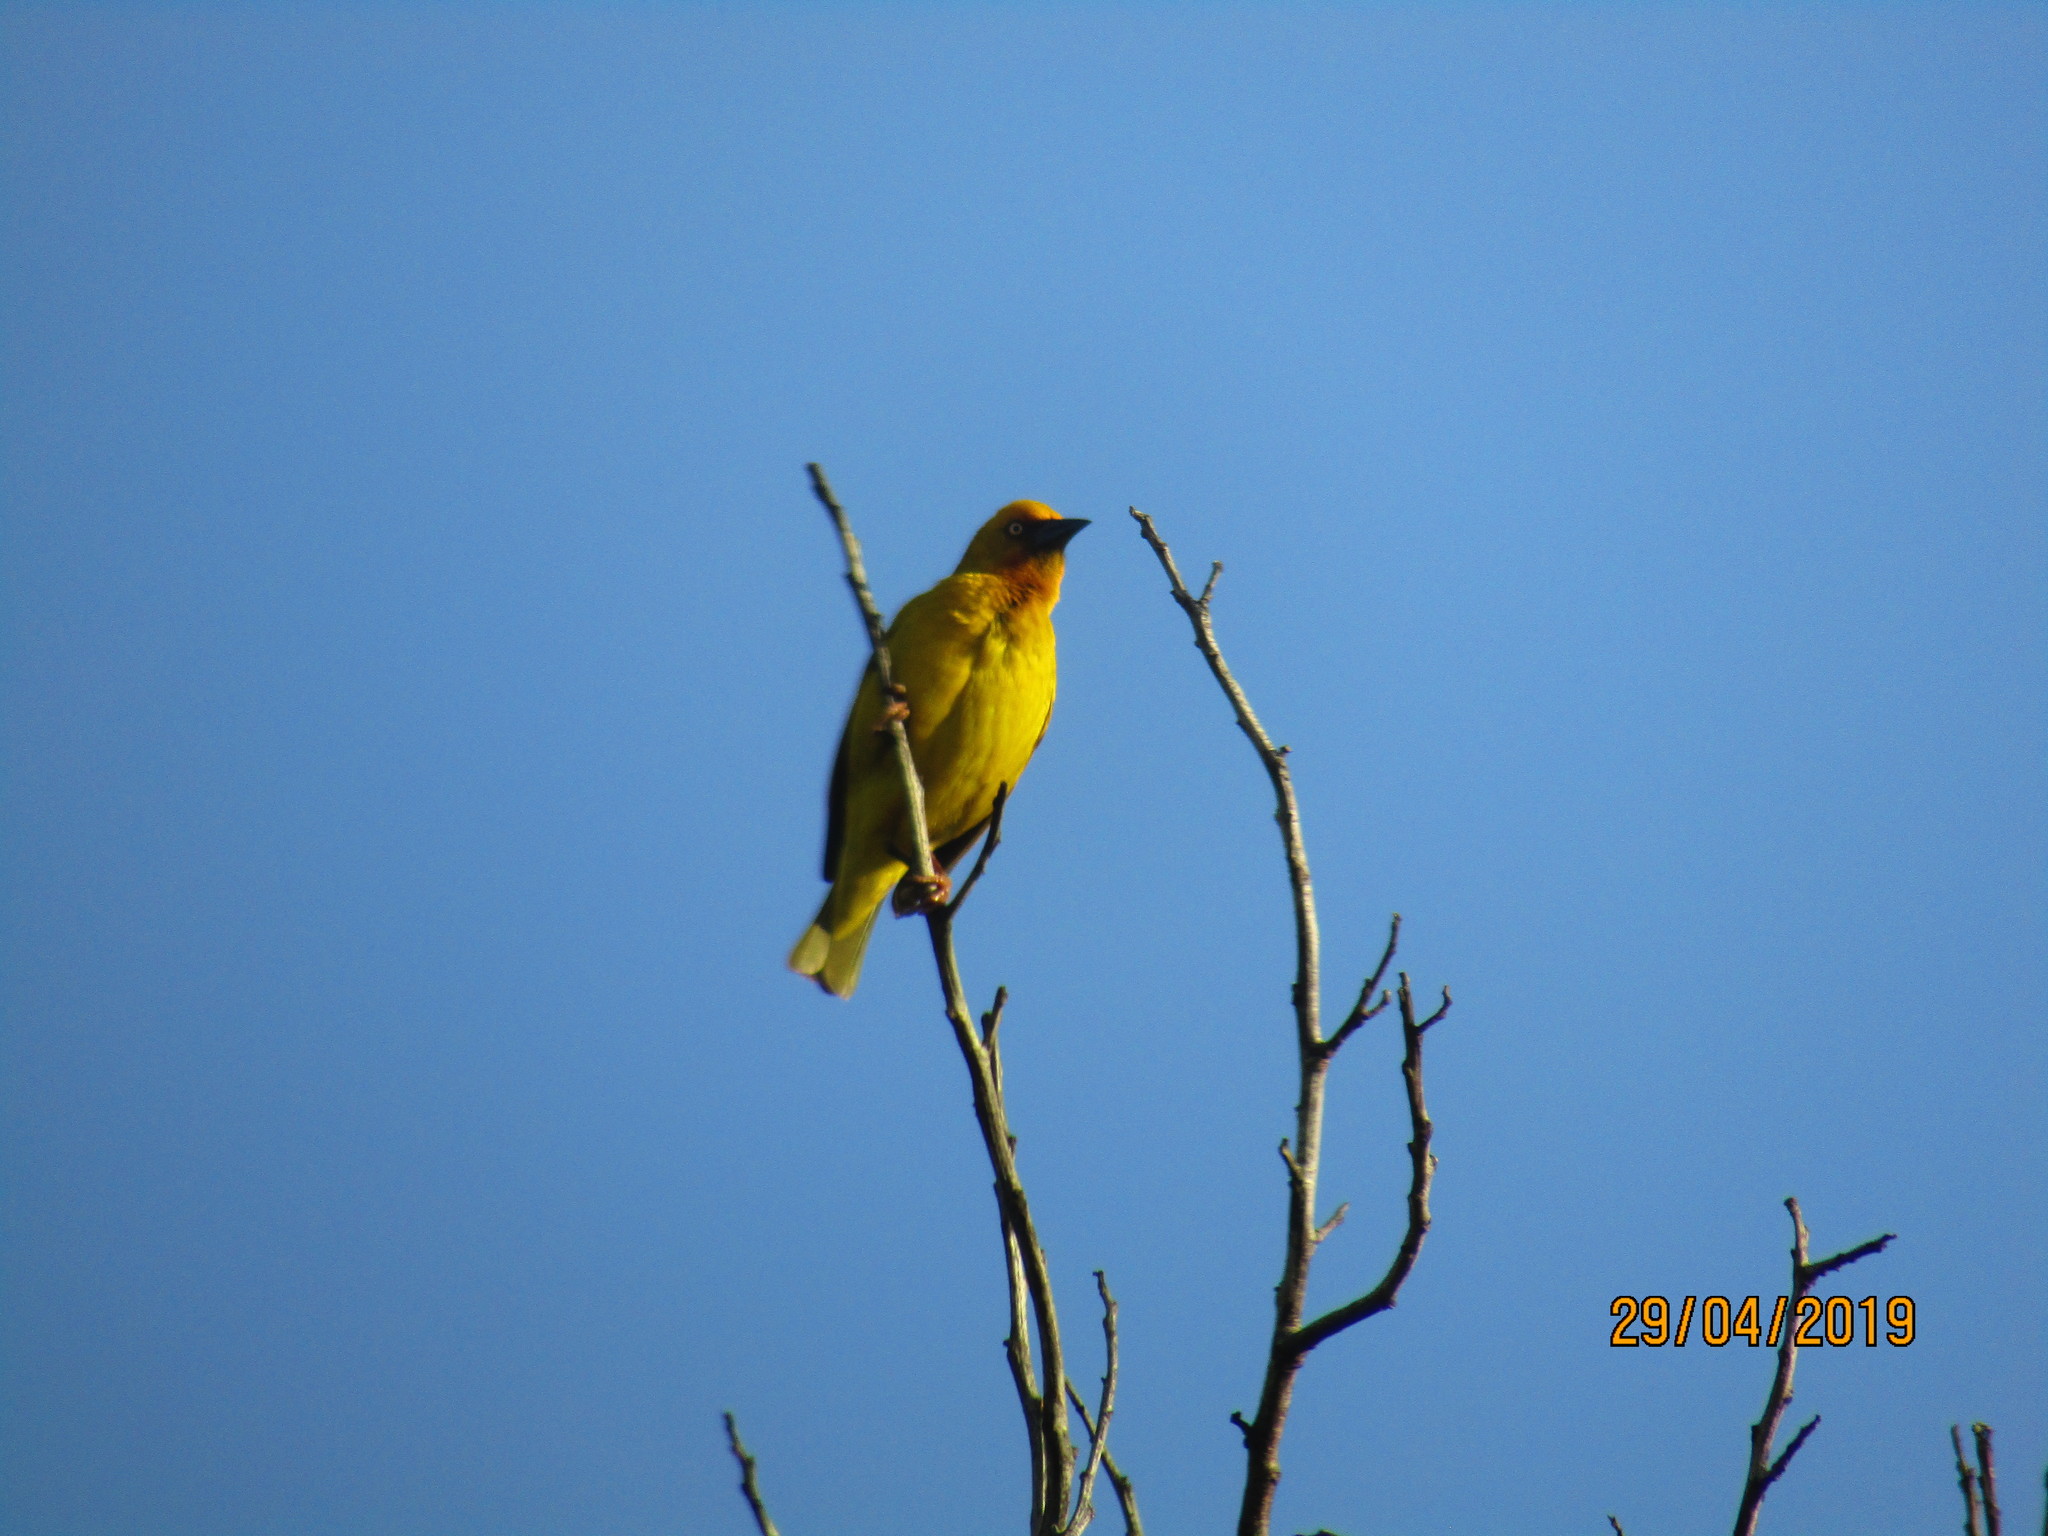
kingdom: Animalia
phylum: Chordata
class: Aves
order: Passeriformes
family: Ploceidae
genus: Ploceus
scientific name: Ploceus capensis
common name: Cape weaver
